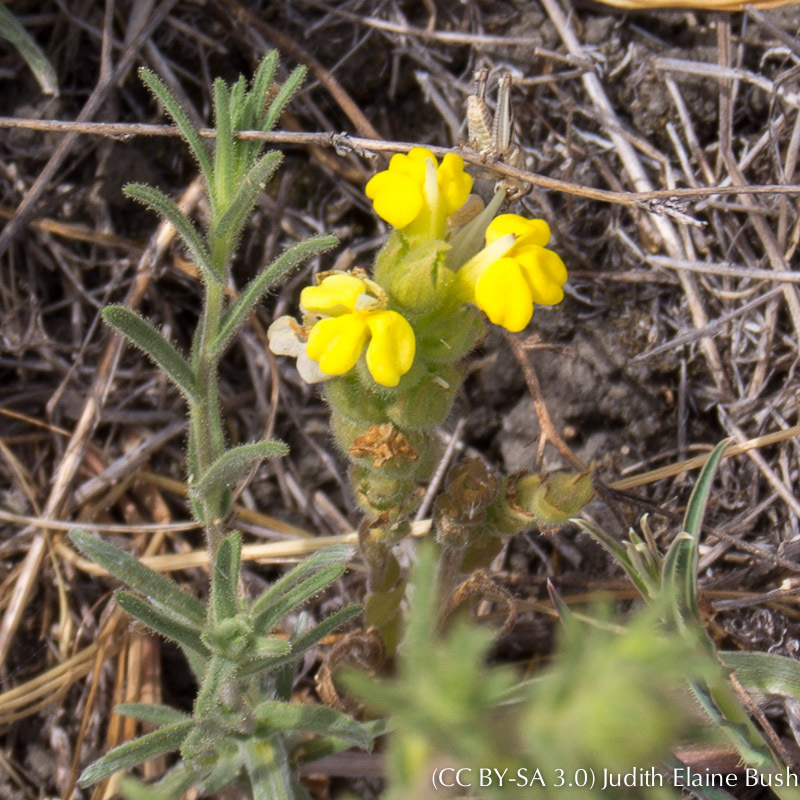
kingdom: Plantae
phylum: Tracheophyta
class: Magnoliopsida
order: Lamiales
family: Orobanchaceae
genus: Castilleja
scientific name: Castilleja rubicundula
